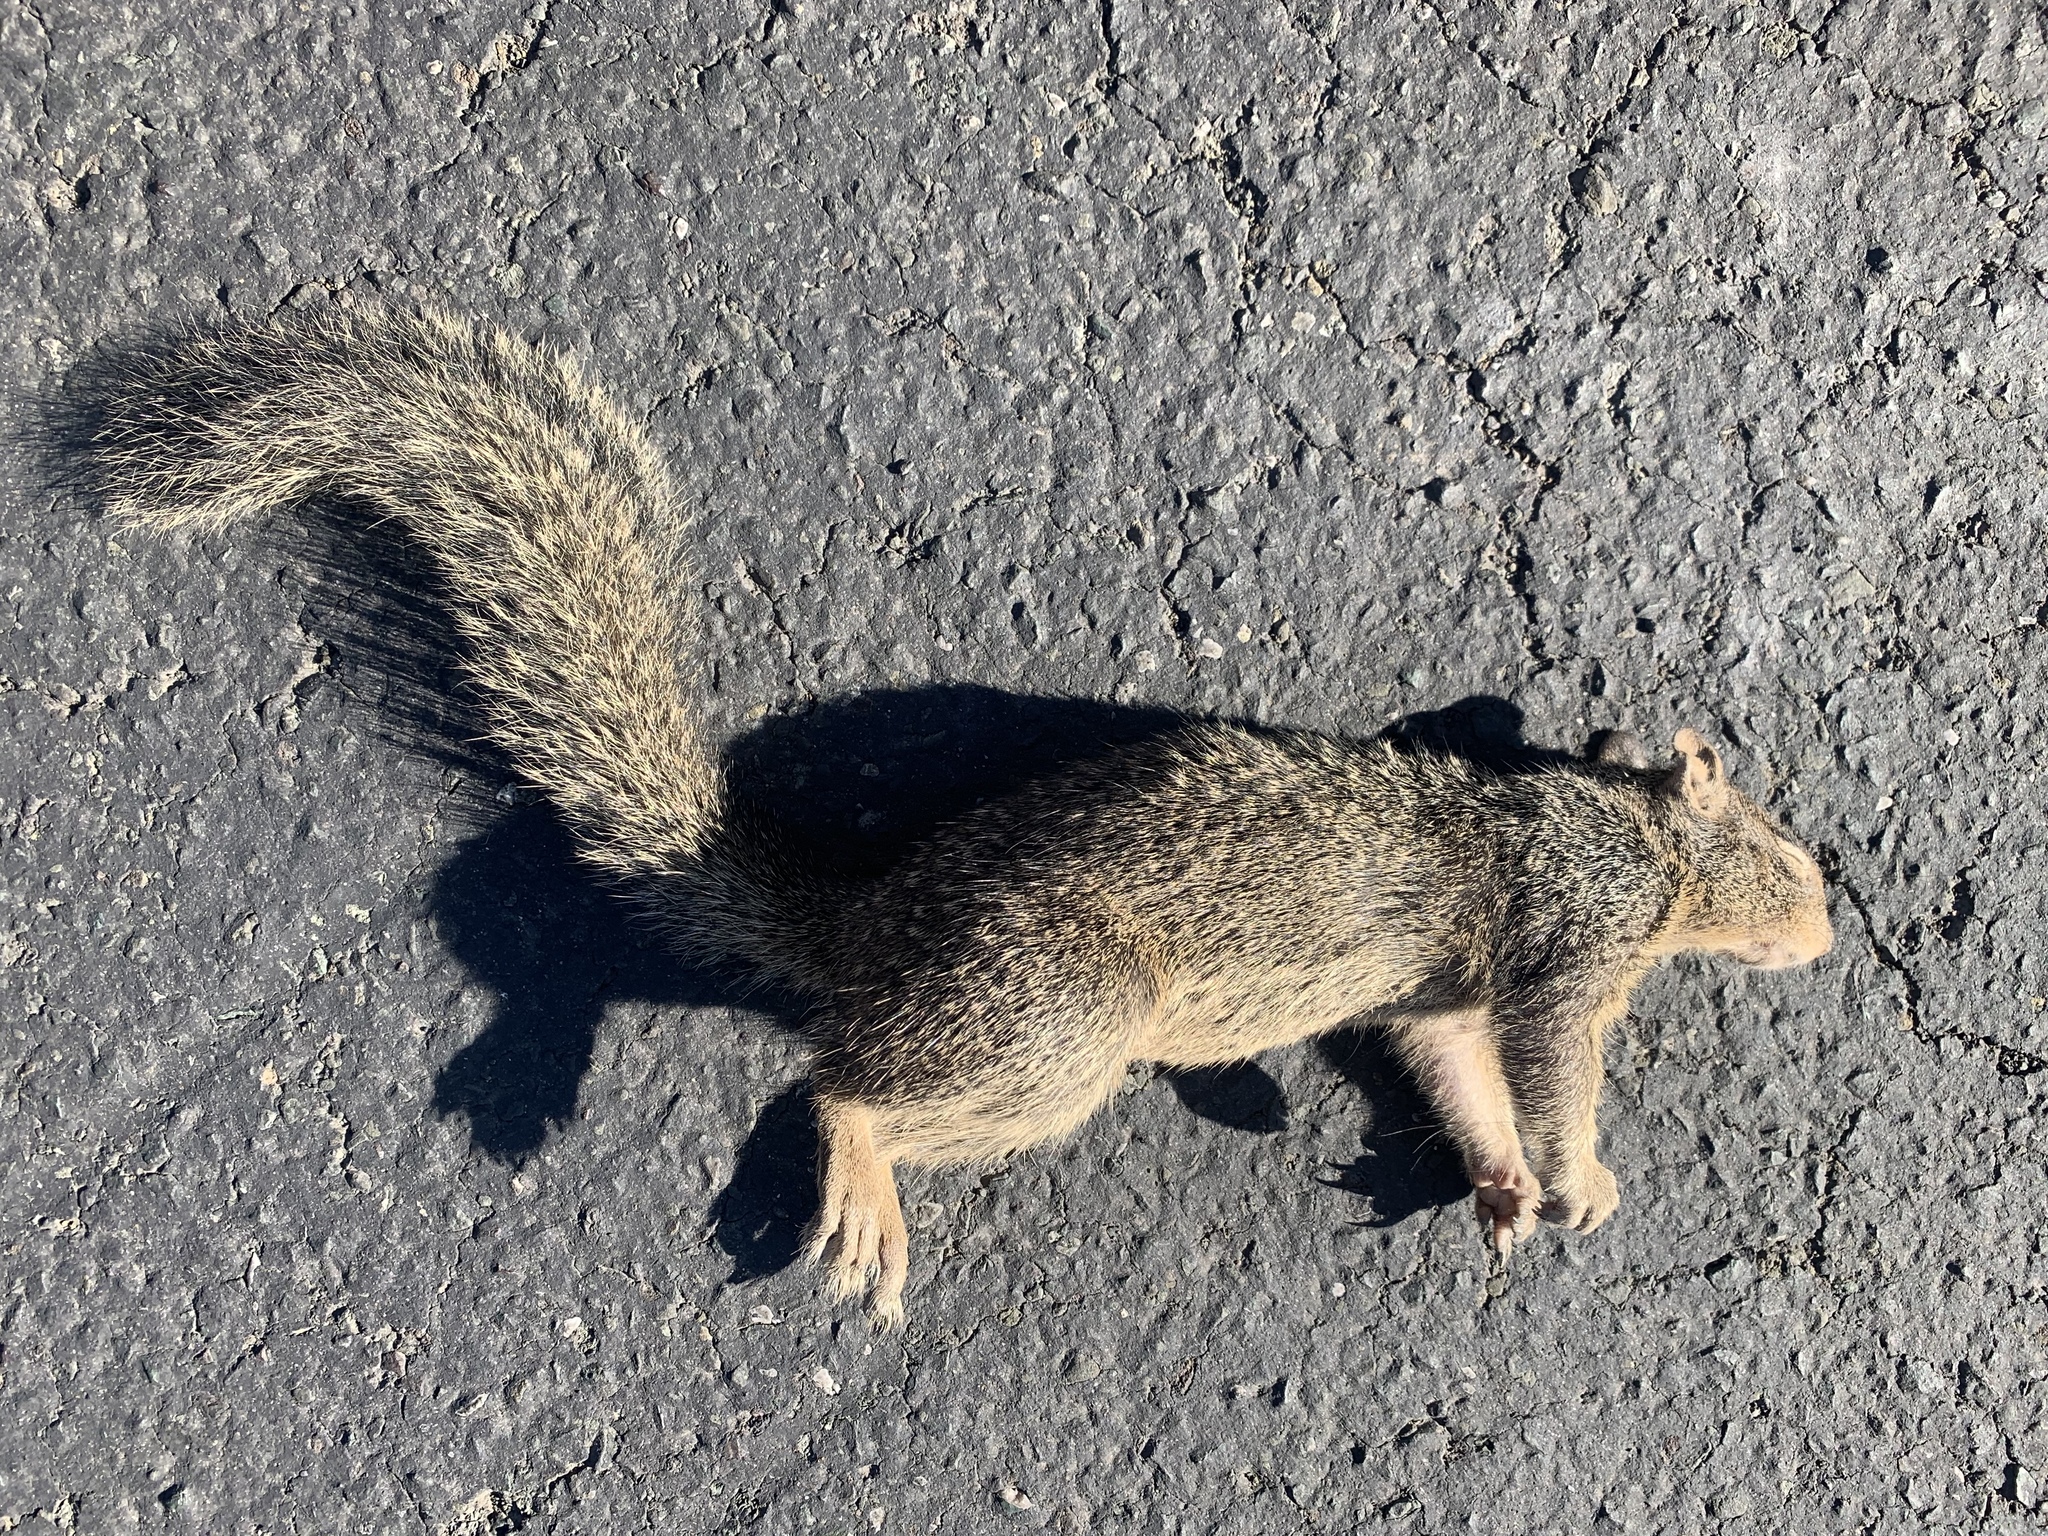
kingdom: Animalia
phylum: Chordata
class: Mammalia
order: Rodentia
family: Sciuridae
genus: Otospermophilus
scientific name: Otospermophilus beecheyi
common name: California ground squirrel
